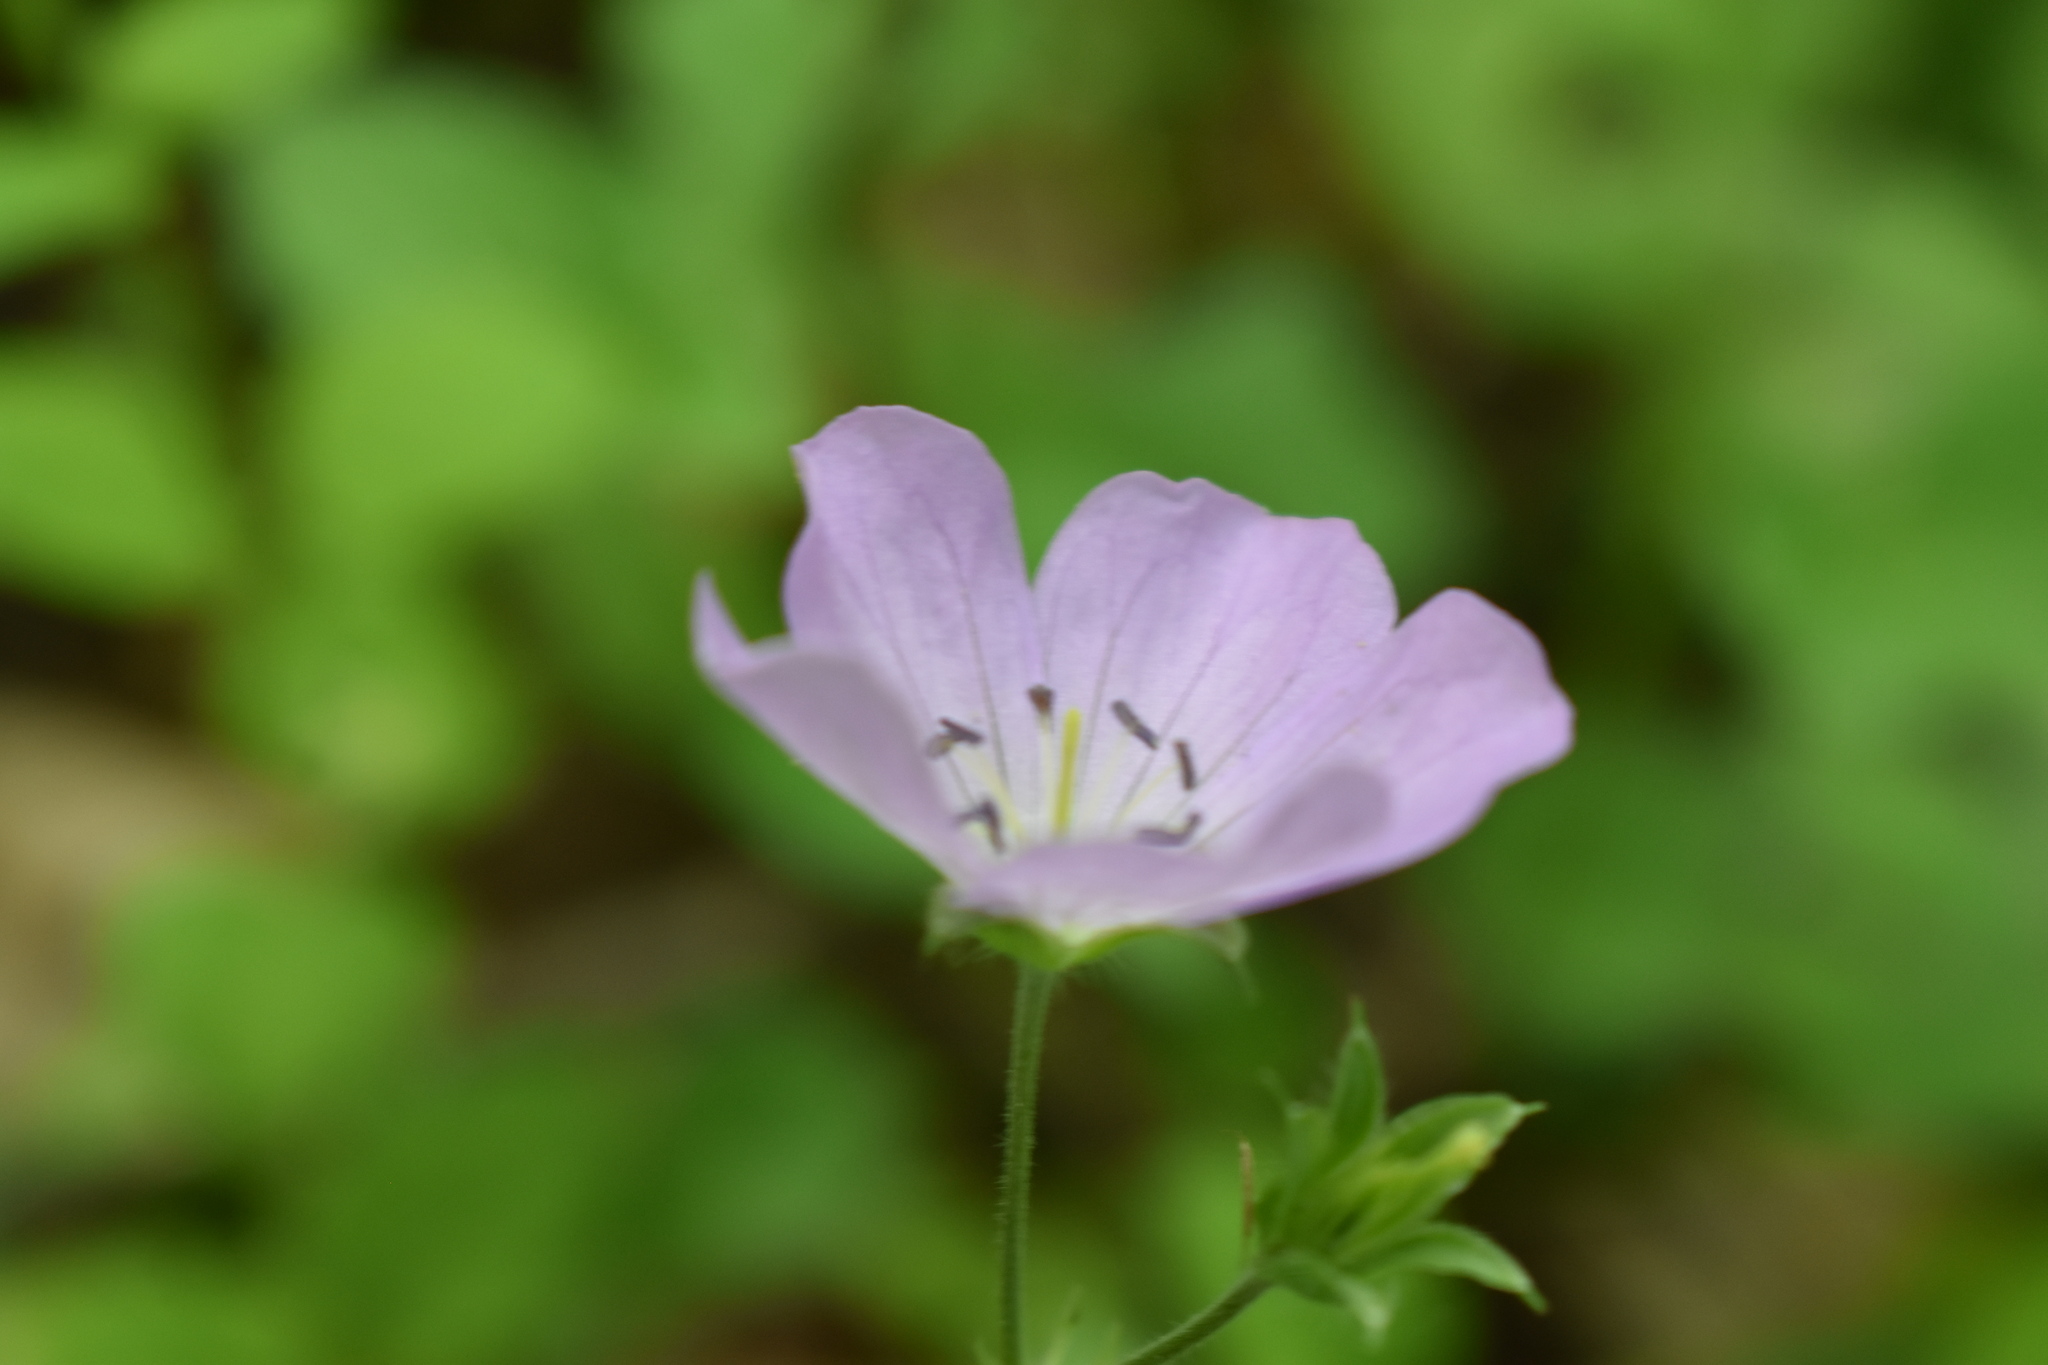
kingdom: Plantae
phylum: Tracheophyta
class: Magnoliopsida
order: Geraniales
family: Geraniaceae
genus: Geranium
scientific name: Geranium maculatum
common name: Spotted geranium
